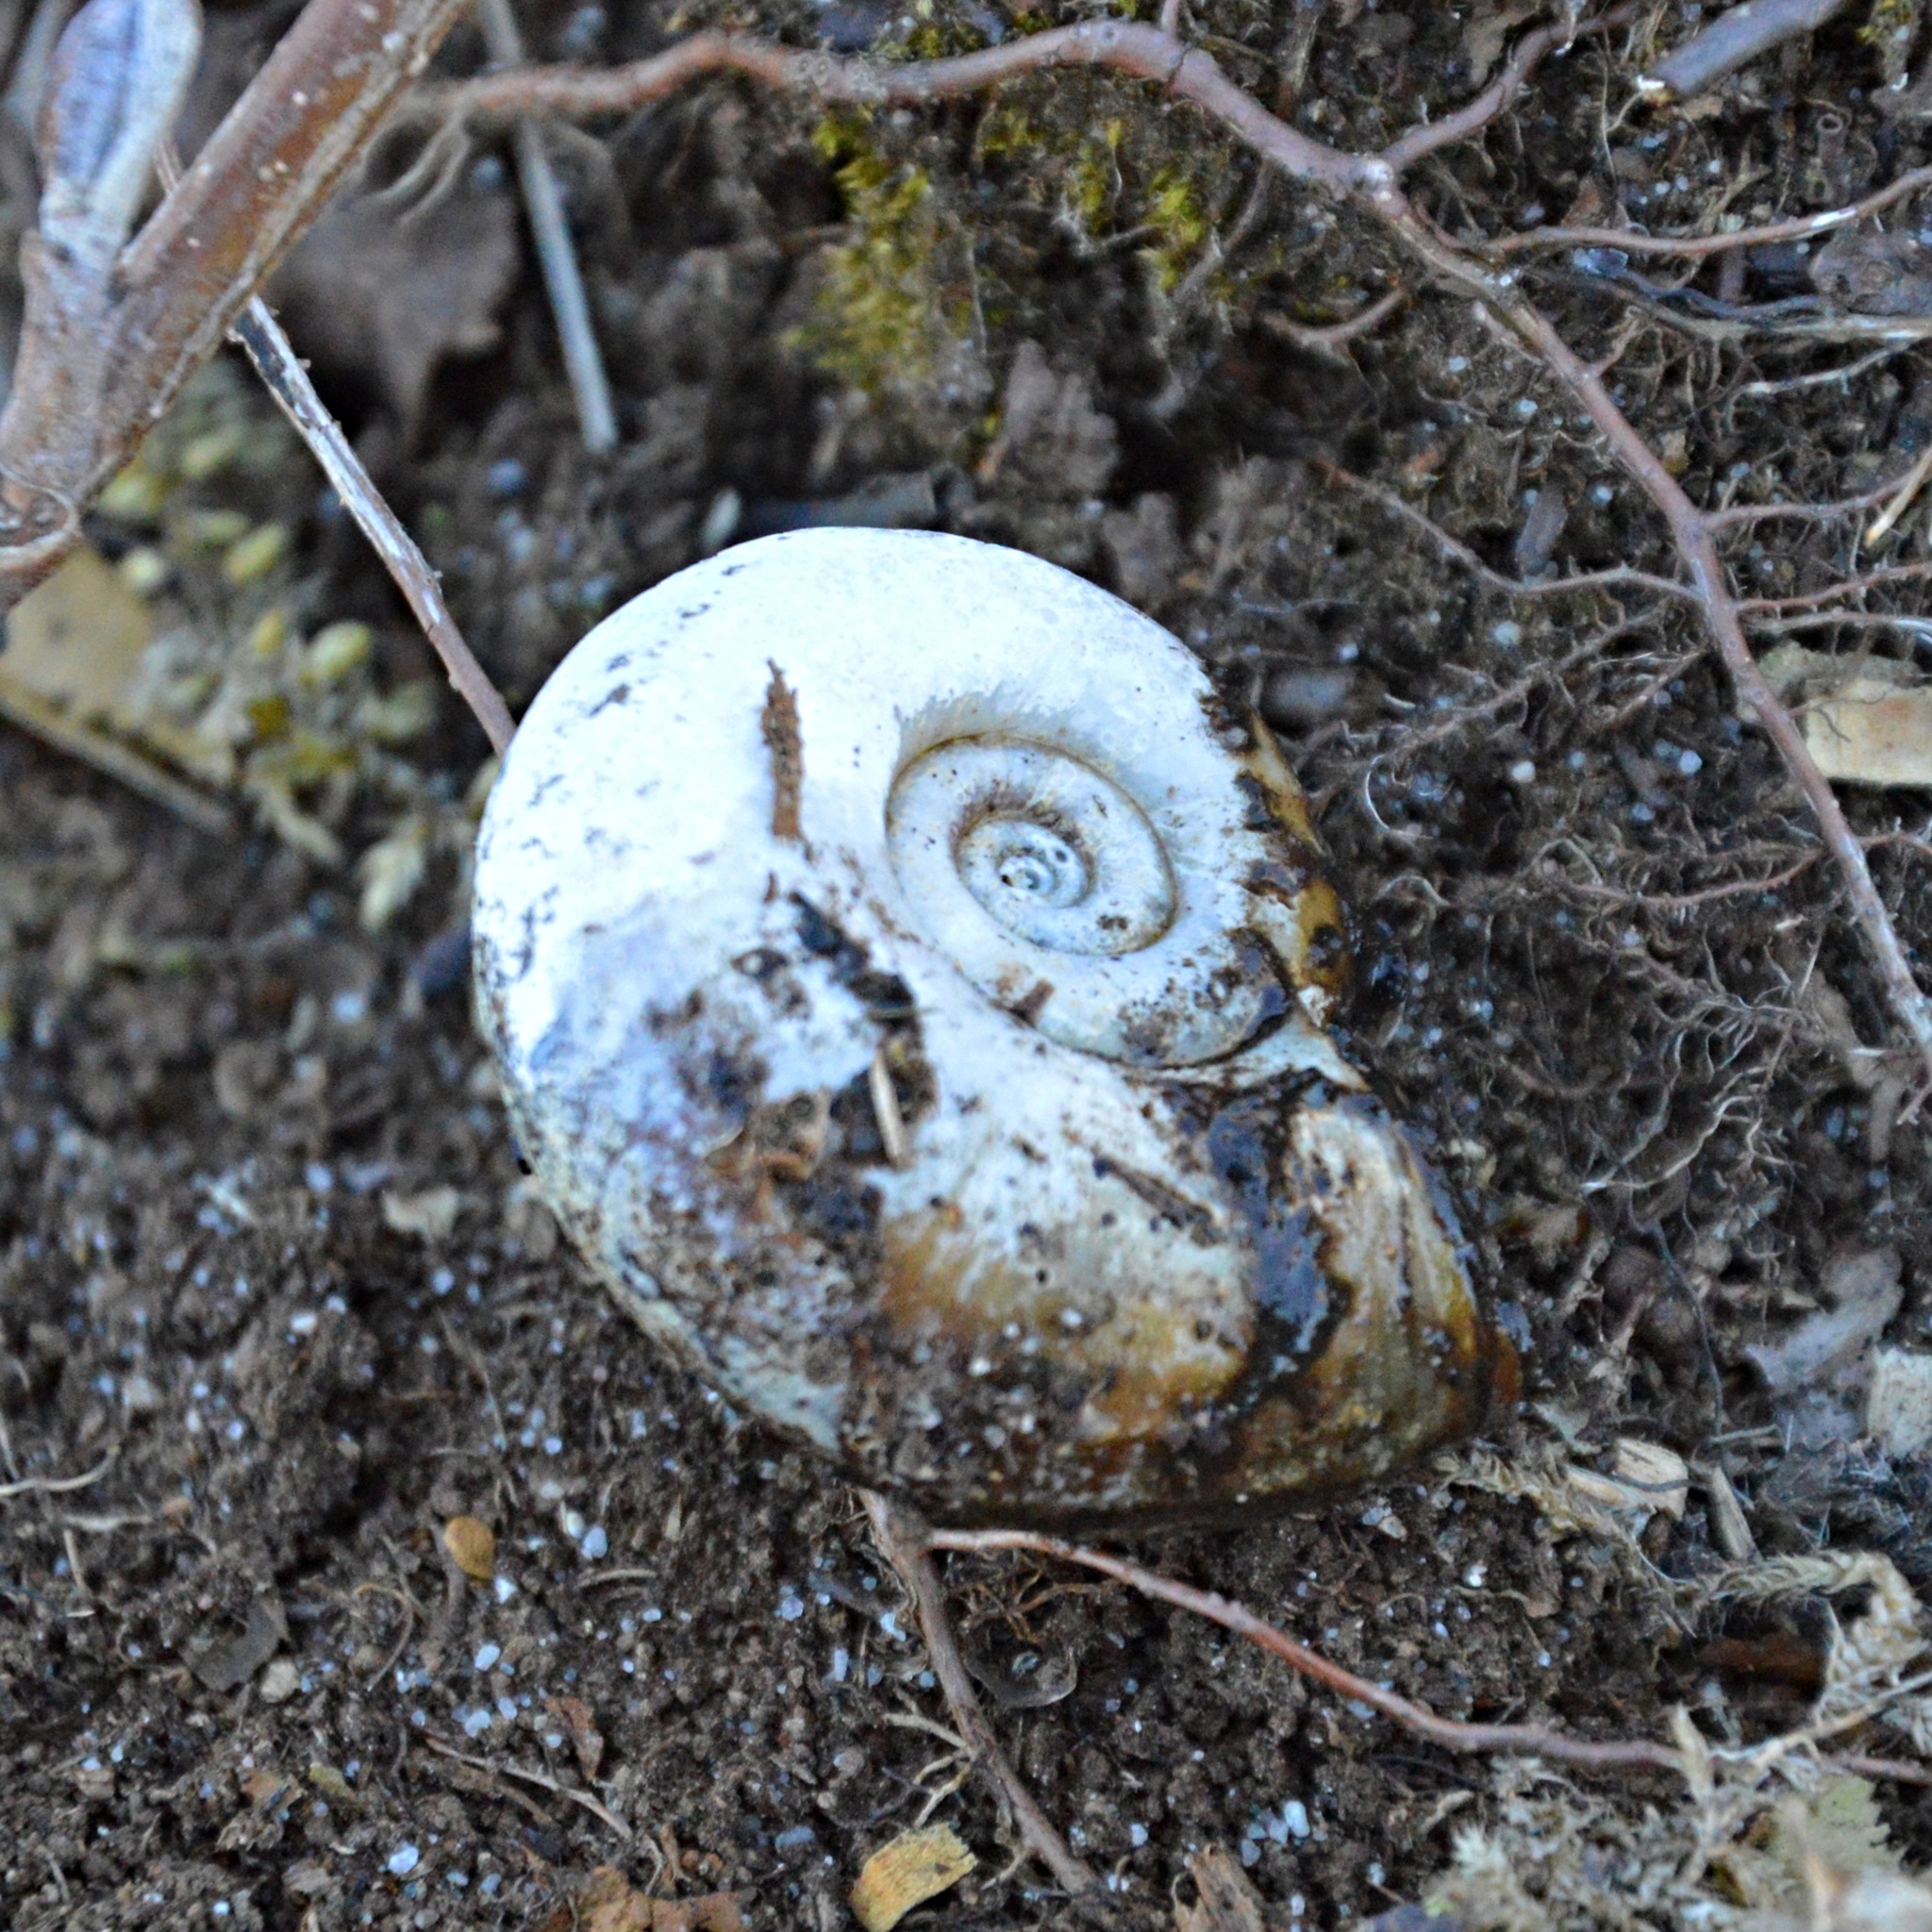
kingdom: Animalia
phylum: Mollusca
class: Gastropoda
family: Planorbidae
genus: Planorbarius
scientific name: Planorbarius corneus
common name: Great ramshorn
